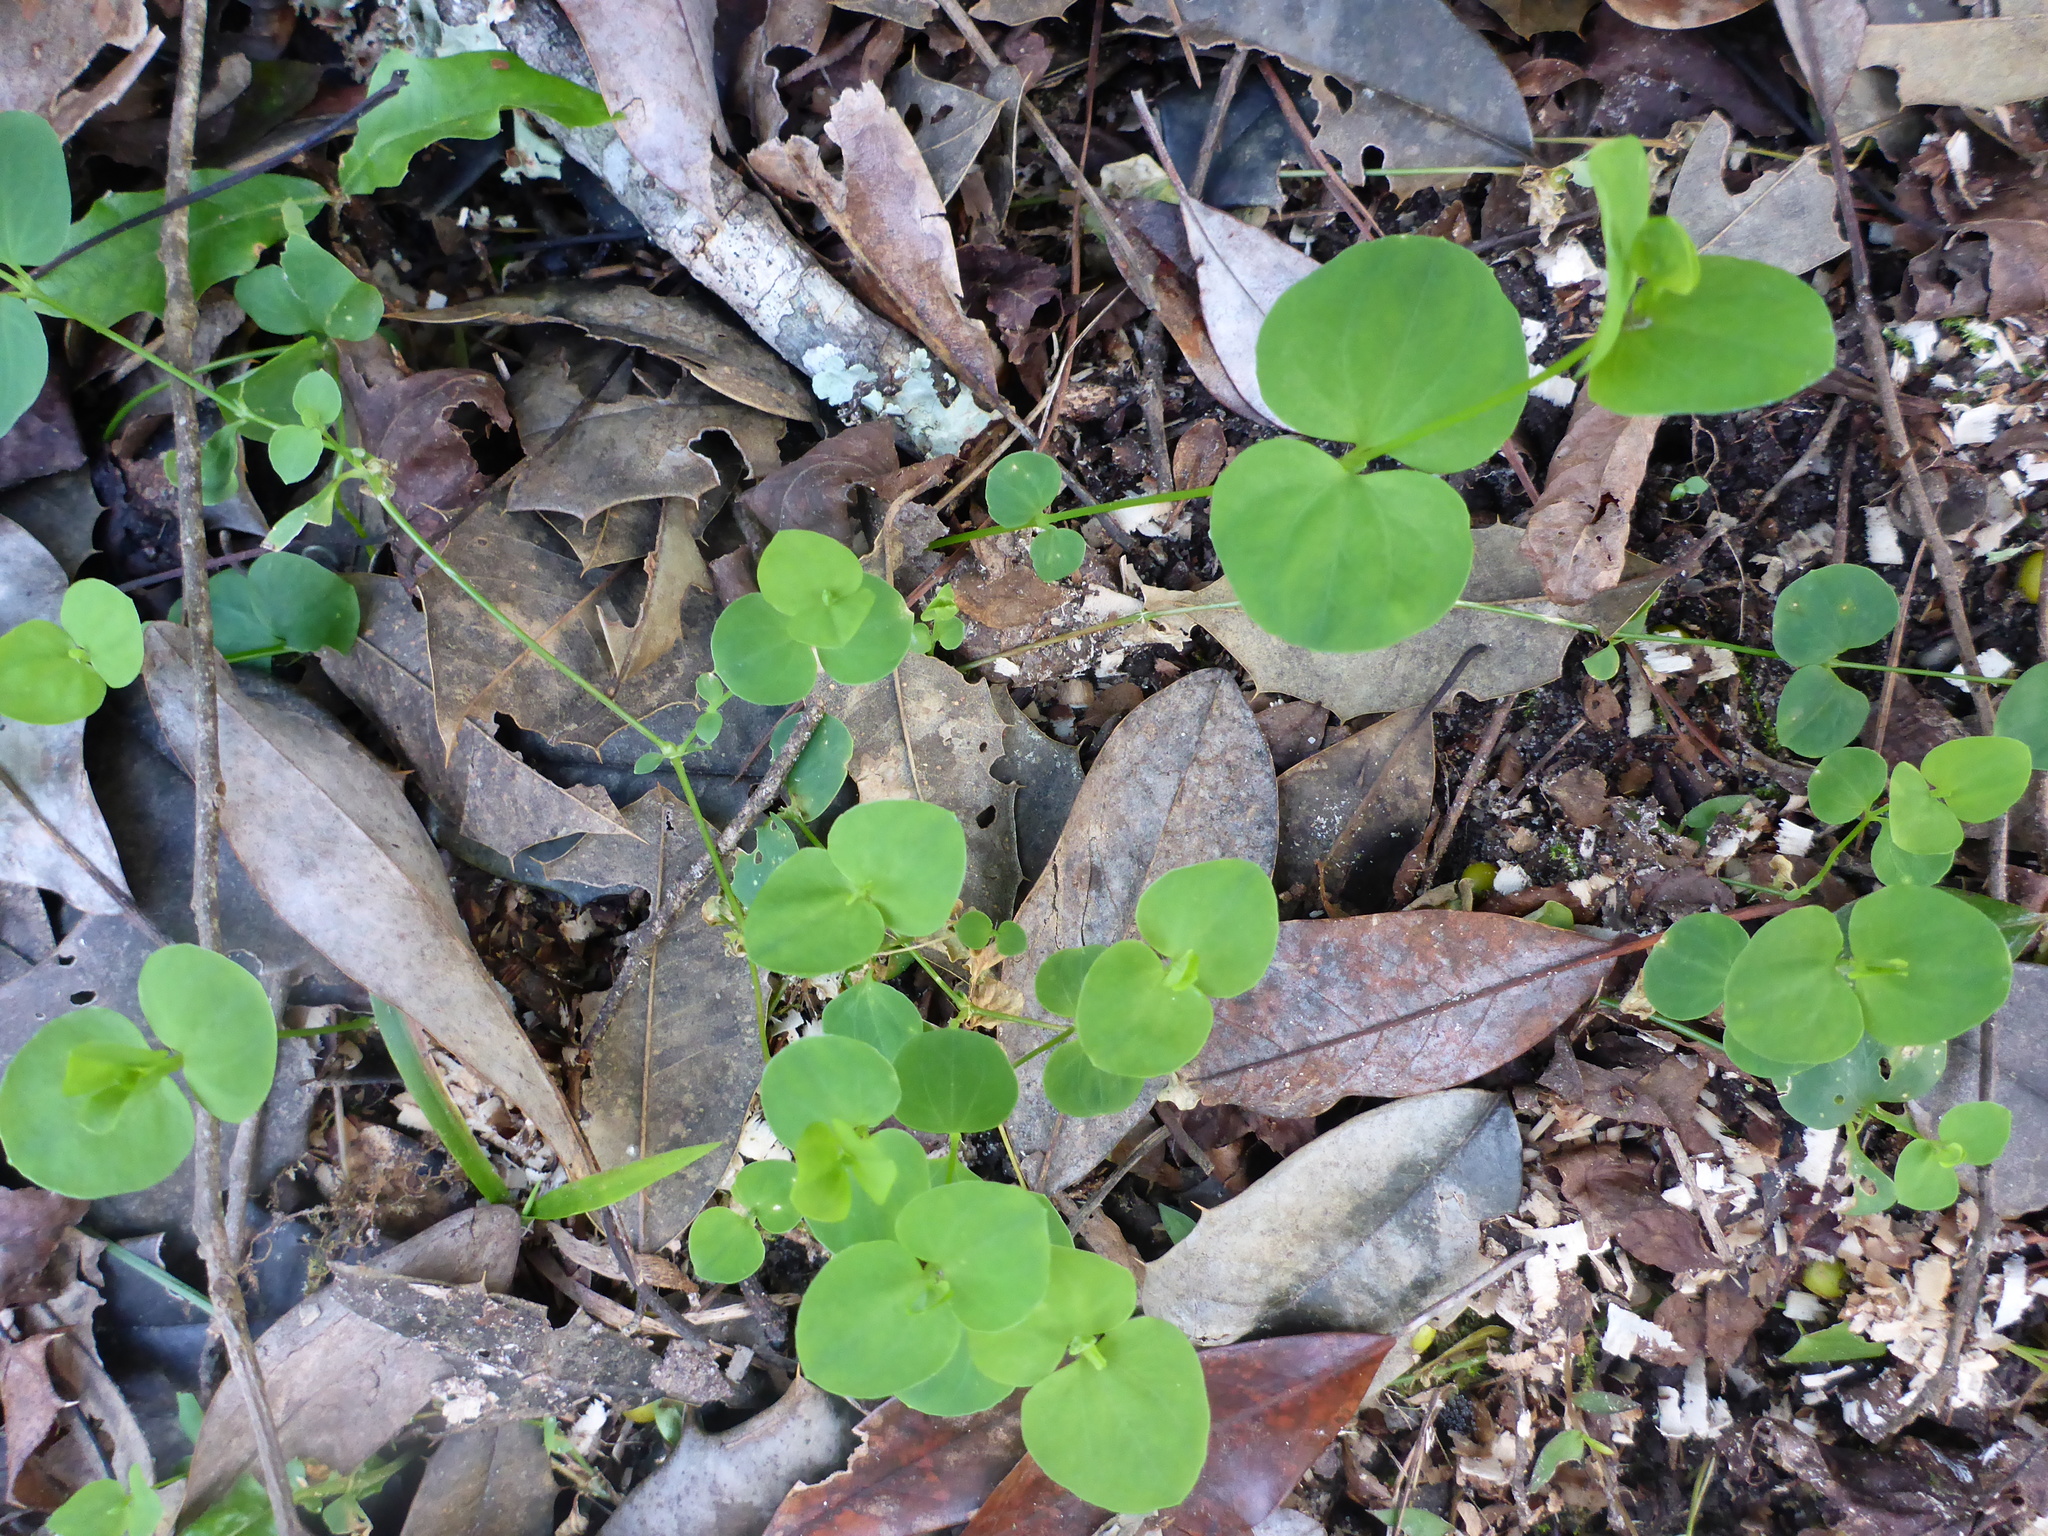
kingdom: Plantae
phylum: Tracheophyta
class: Magnoliopsida
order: Caryophyllales
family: Caryophyllaceae
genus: Drymaria
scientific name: Drymaria cordata
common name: Whitesnow
